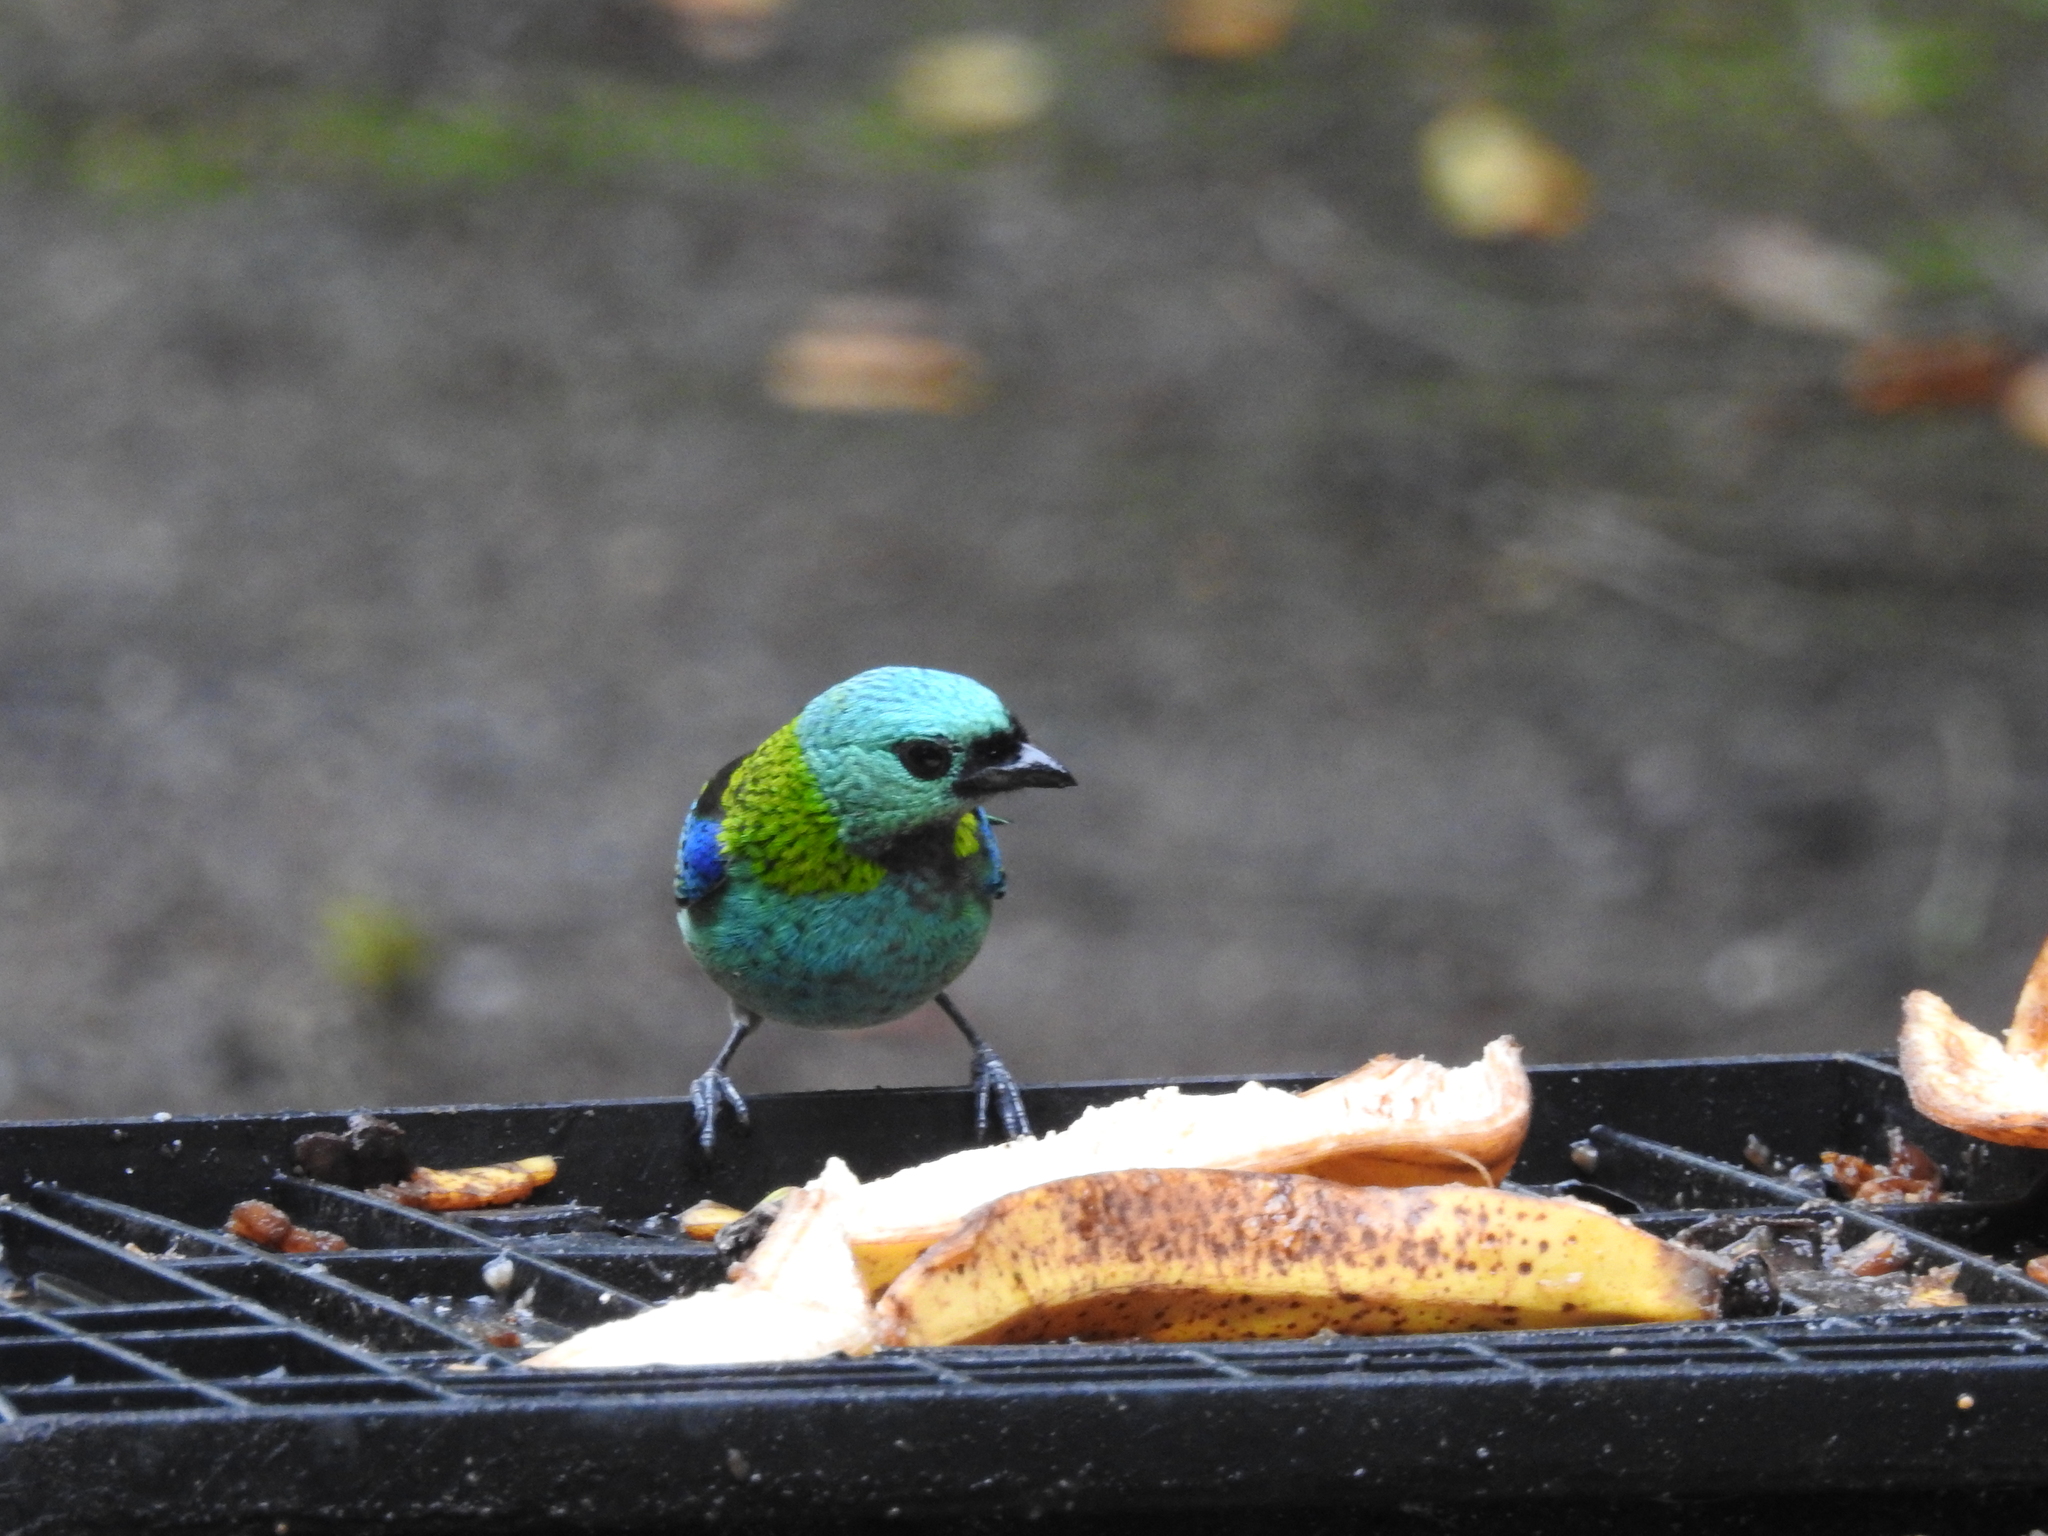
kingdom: Animalia
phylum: Chordata
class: Aves
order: Passeriformes
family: Thraupidae
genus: Tangara
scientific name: Tangara seledon
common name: Green-headed tanager
